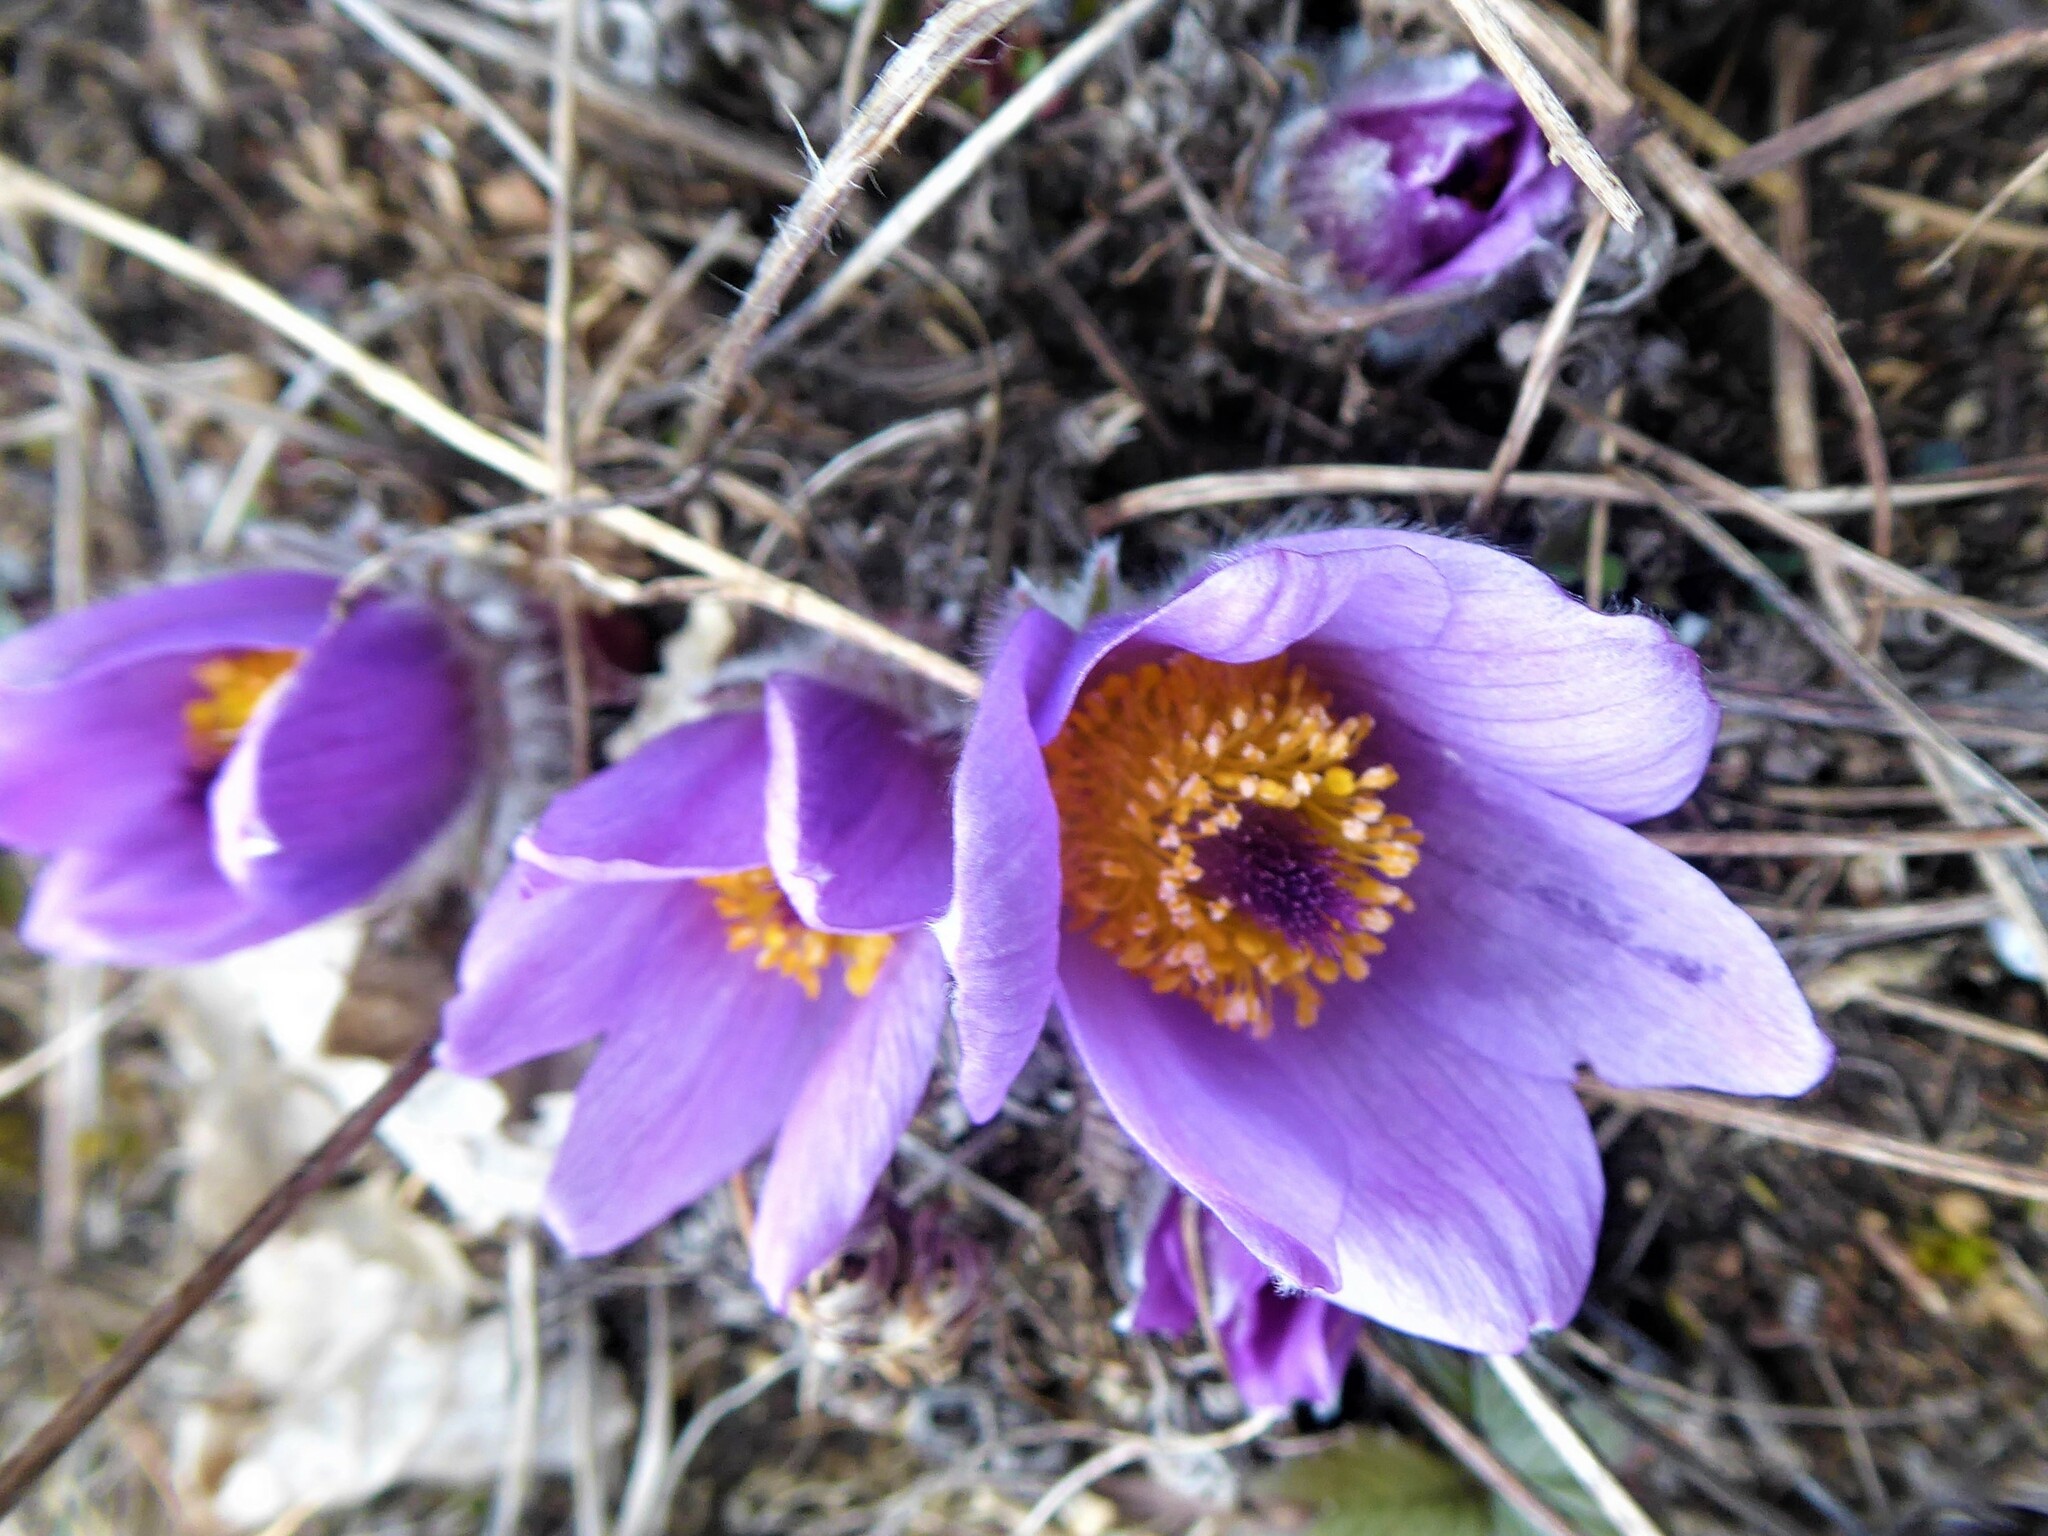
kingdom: Plantae
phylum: Tracheophyta
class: Magnoliopsida
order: Ranunculales
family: Ranunculaceae
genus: Pulsatilla
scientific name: Pulsatilla grandis
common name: Greater pasque flower
